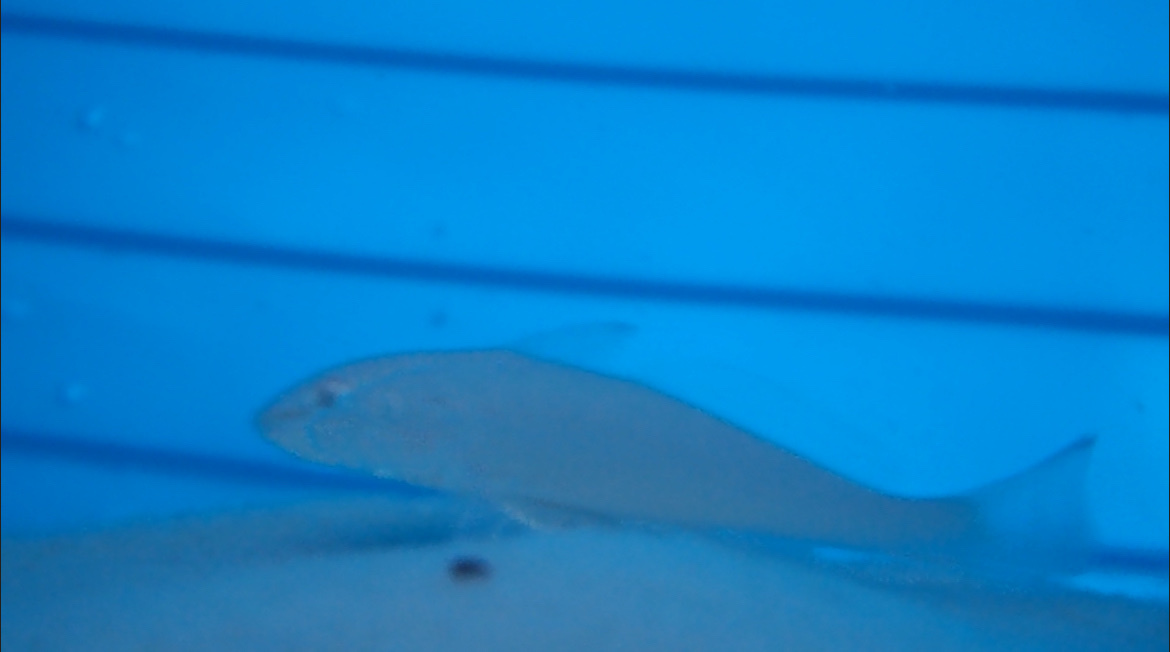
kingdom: Animalia
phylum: Chordata
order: Perciformes
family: Sciaenidae
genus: Menticirrhus
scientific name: Menticirrhus littoralis
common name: Gulf kingcroaker
